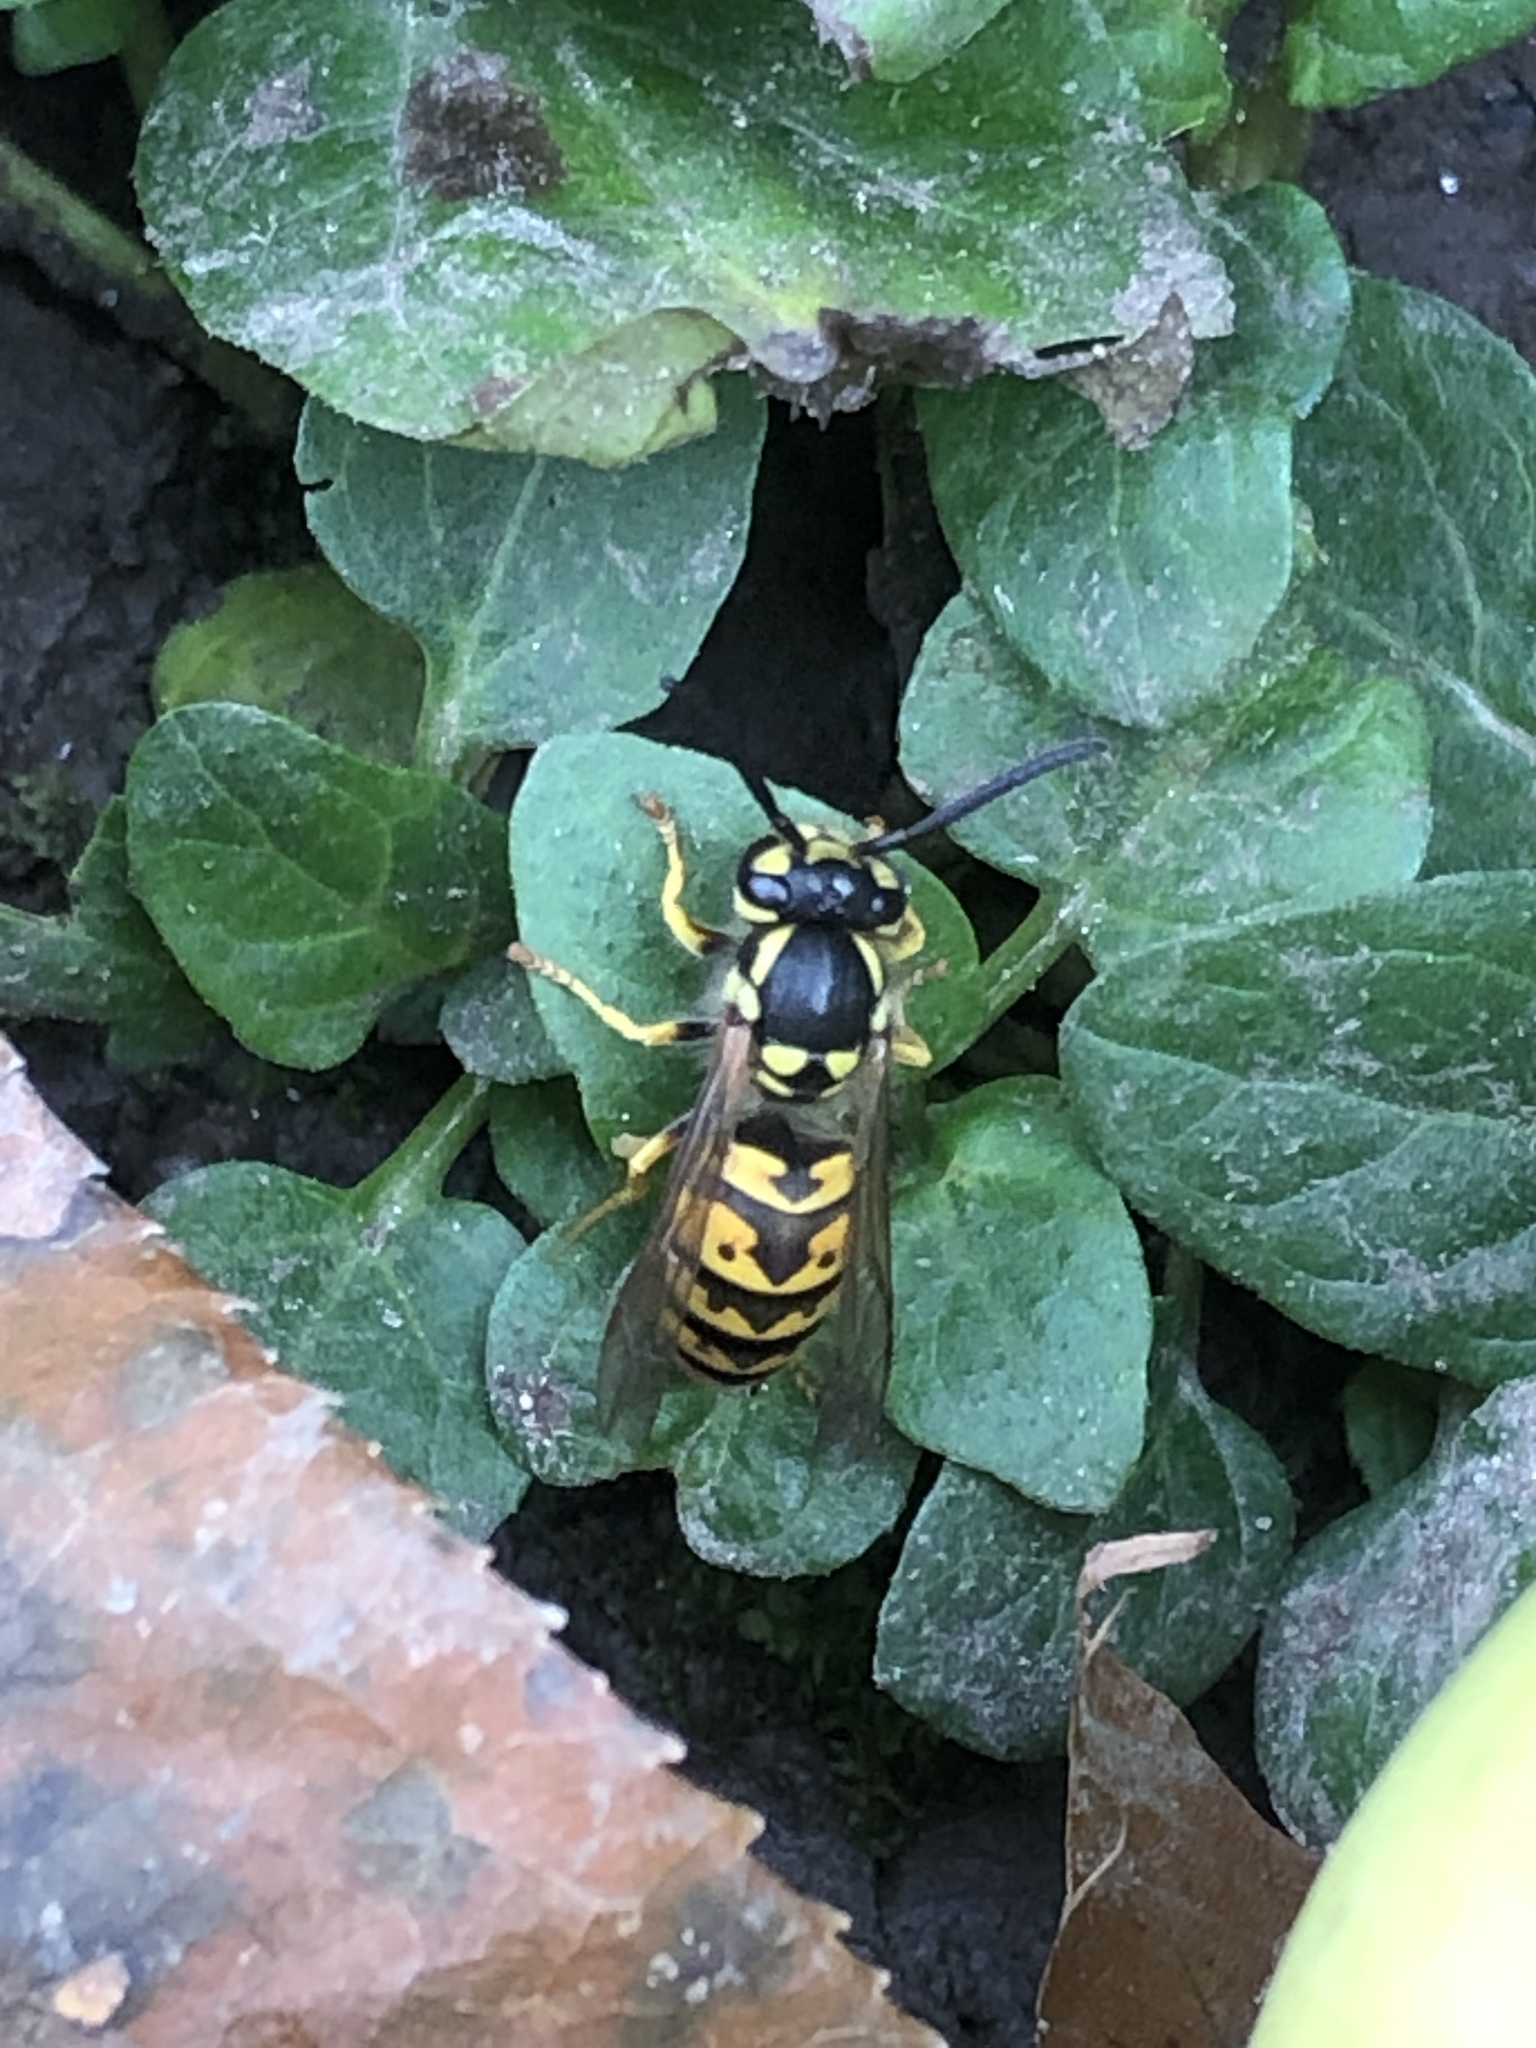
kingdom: Animalia
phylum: Arthropoda
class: Insecta
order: Hymenoptera
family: Vespidae
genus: Vespula
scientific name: Vespula germanica
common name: German wasp
